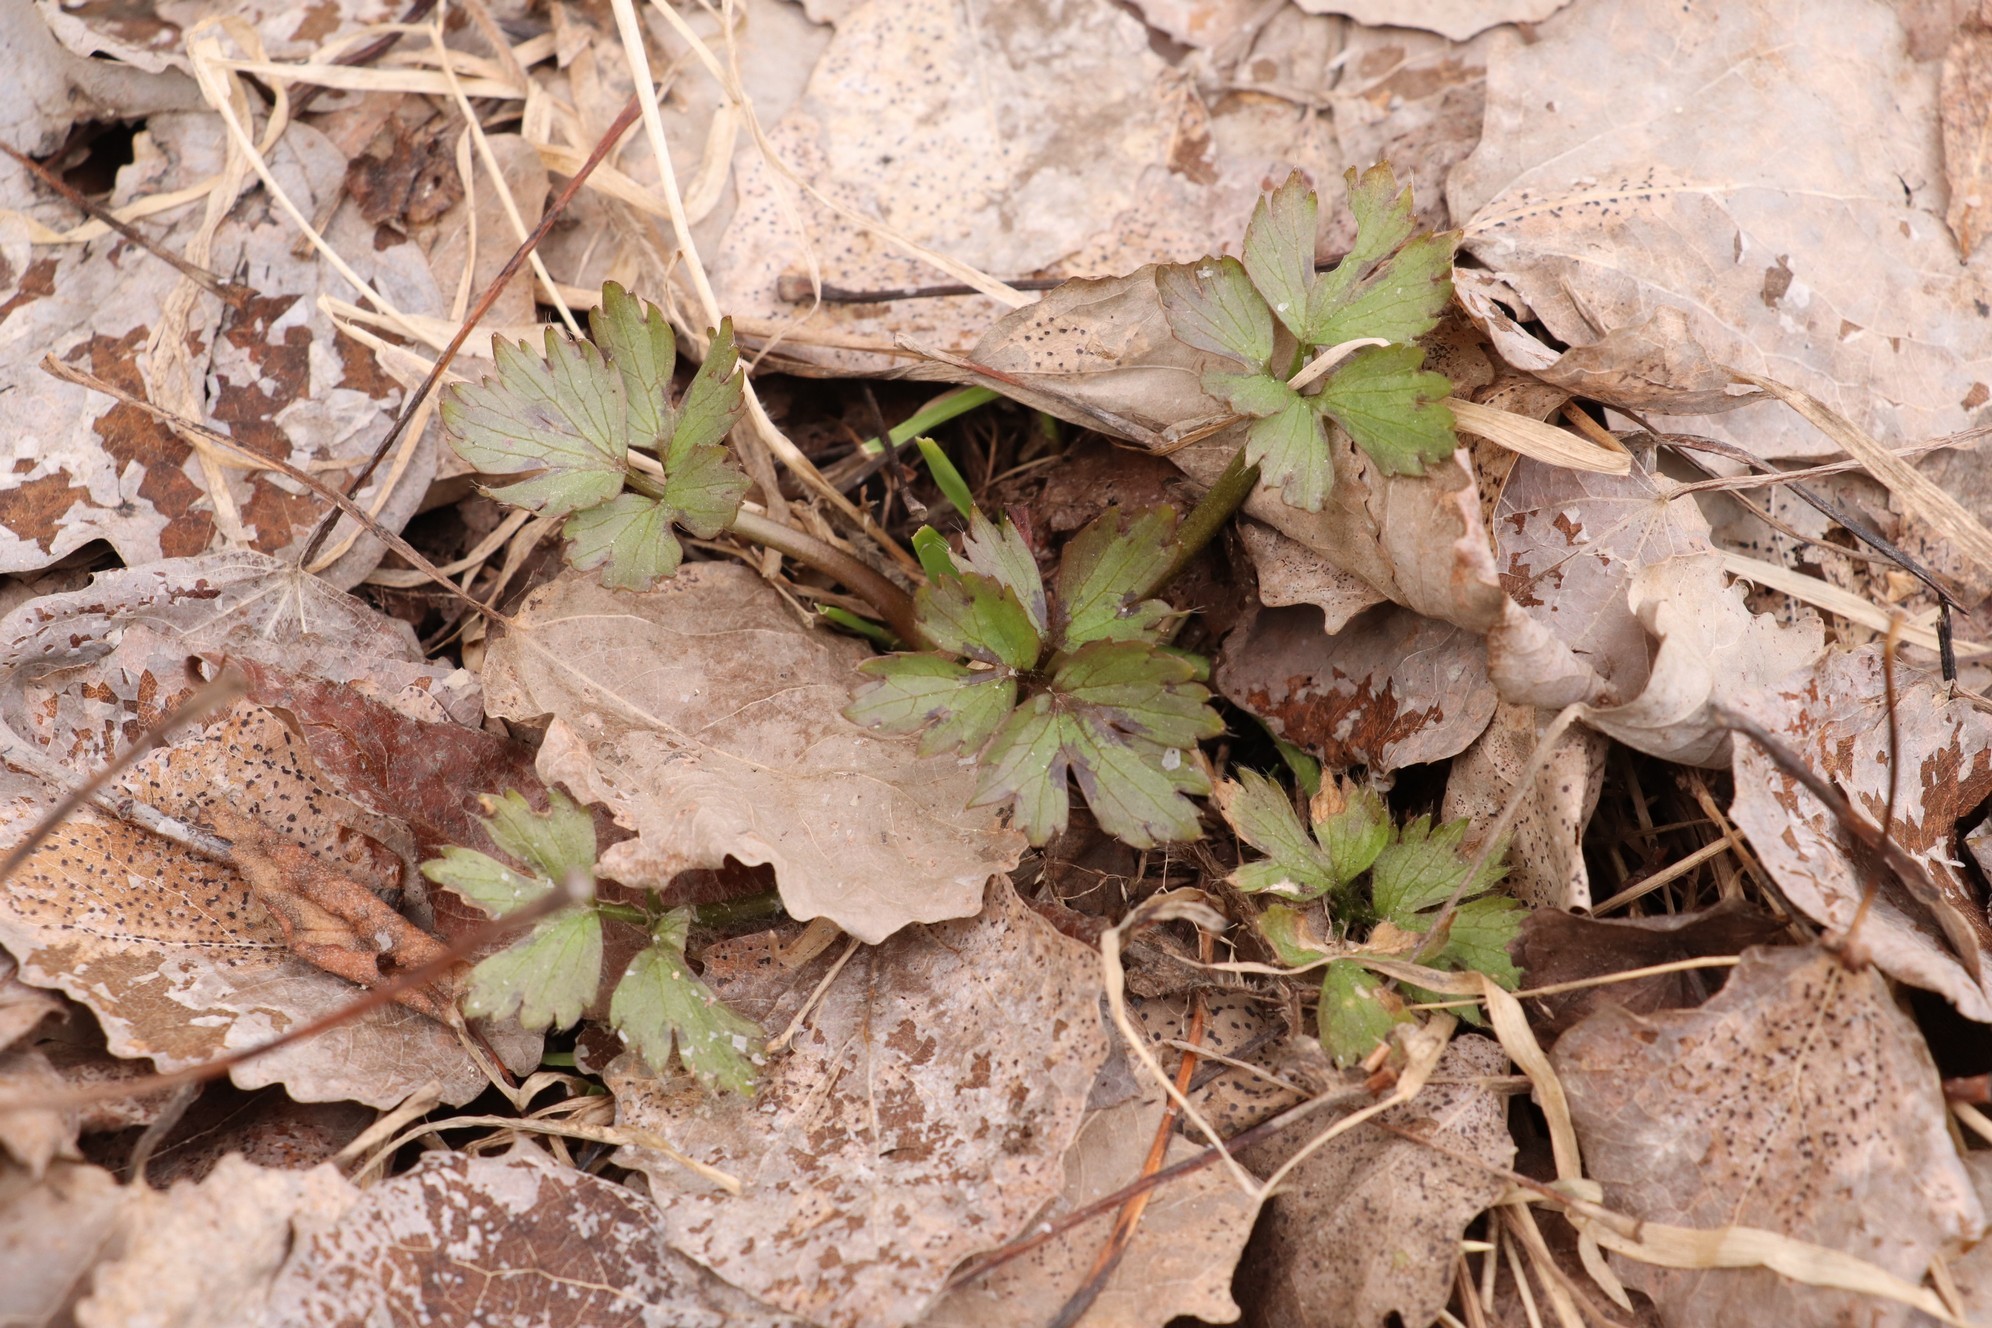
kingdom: Plantae
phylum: Tracheophyta
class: Magnoliopsida
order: Ranunculales
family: Ranunculaceae
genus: Ranunculus
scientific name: Ranunculus repens
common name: Creeping buttercup
